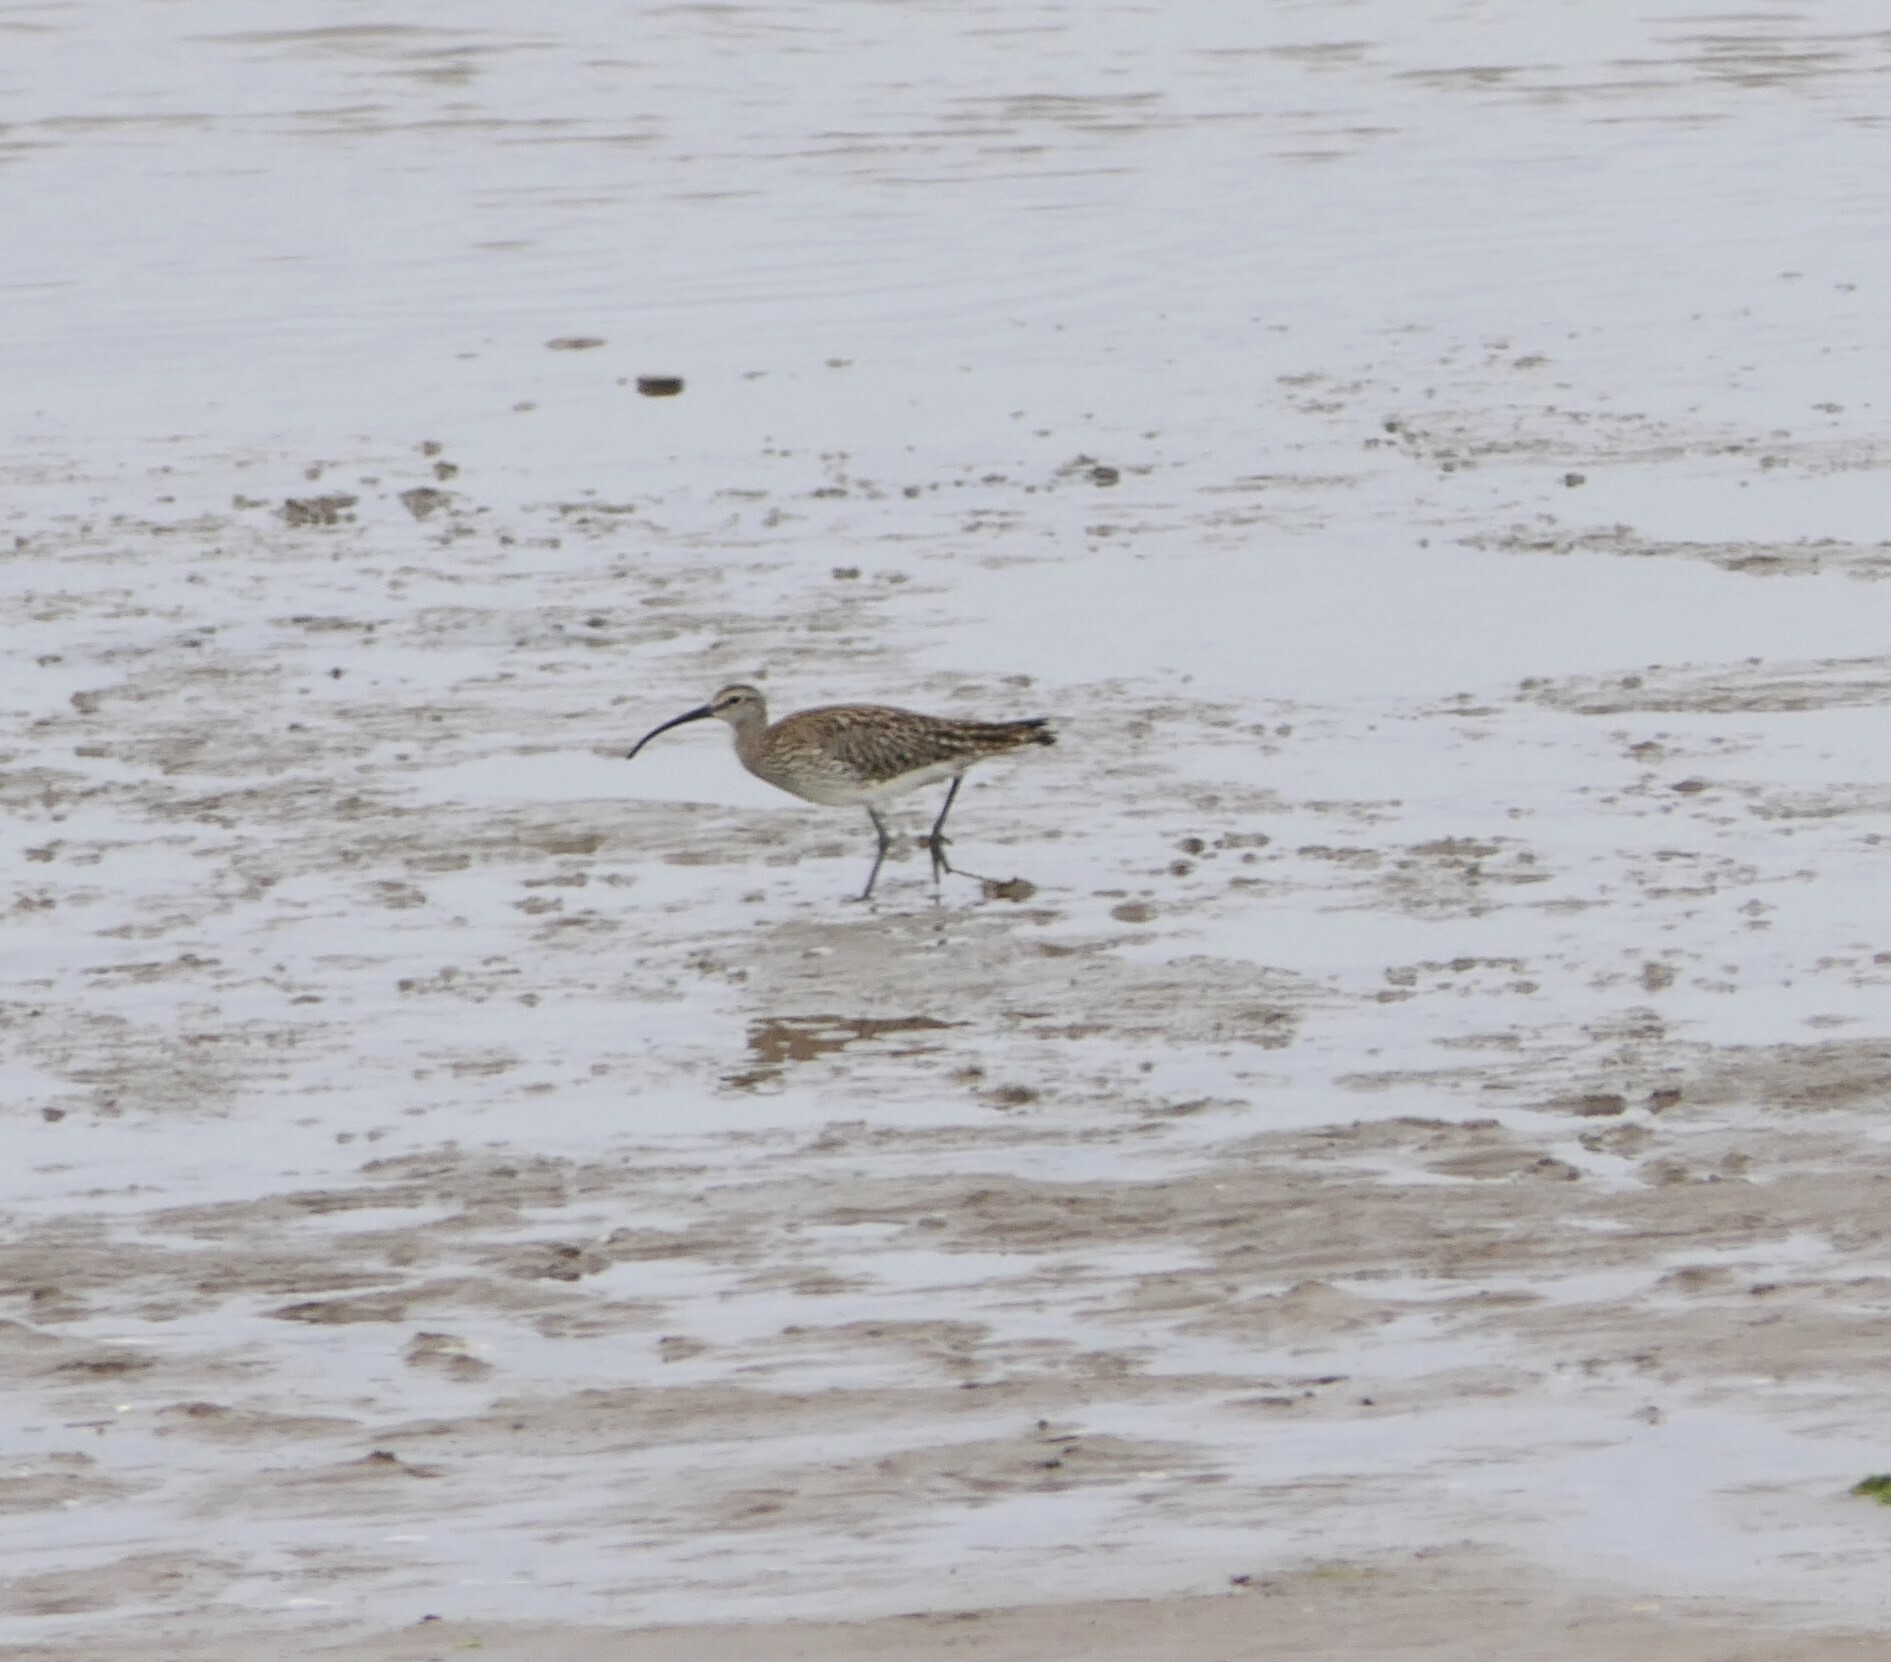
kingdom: Animalia
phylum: Chordata
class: Aves
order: Charadriiformes
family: Scolopacidae
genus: Numenius
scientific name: Numenius phaeopus
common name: Whimbrel
